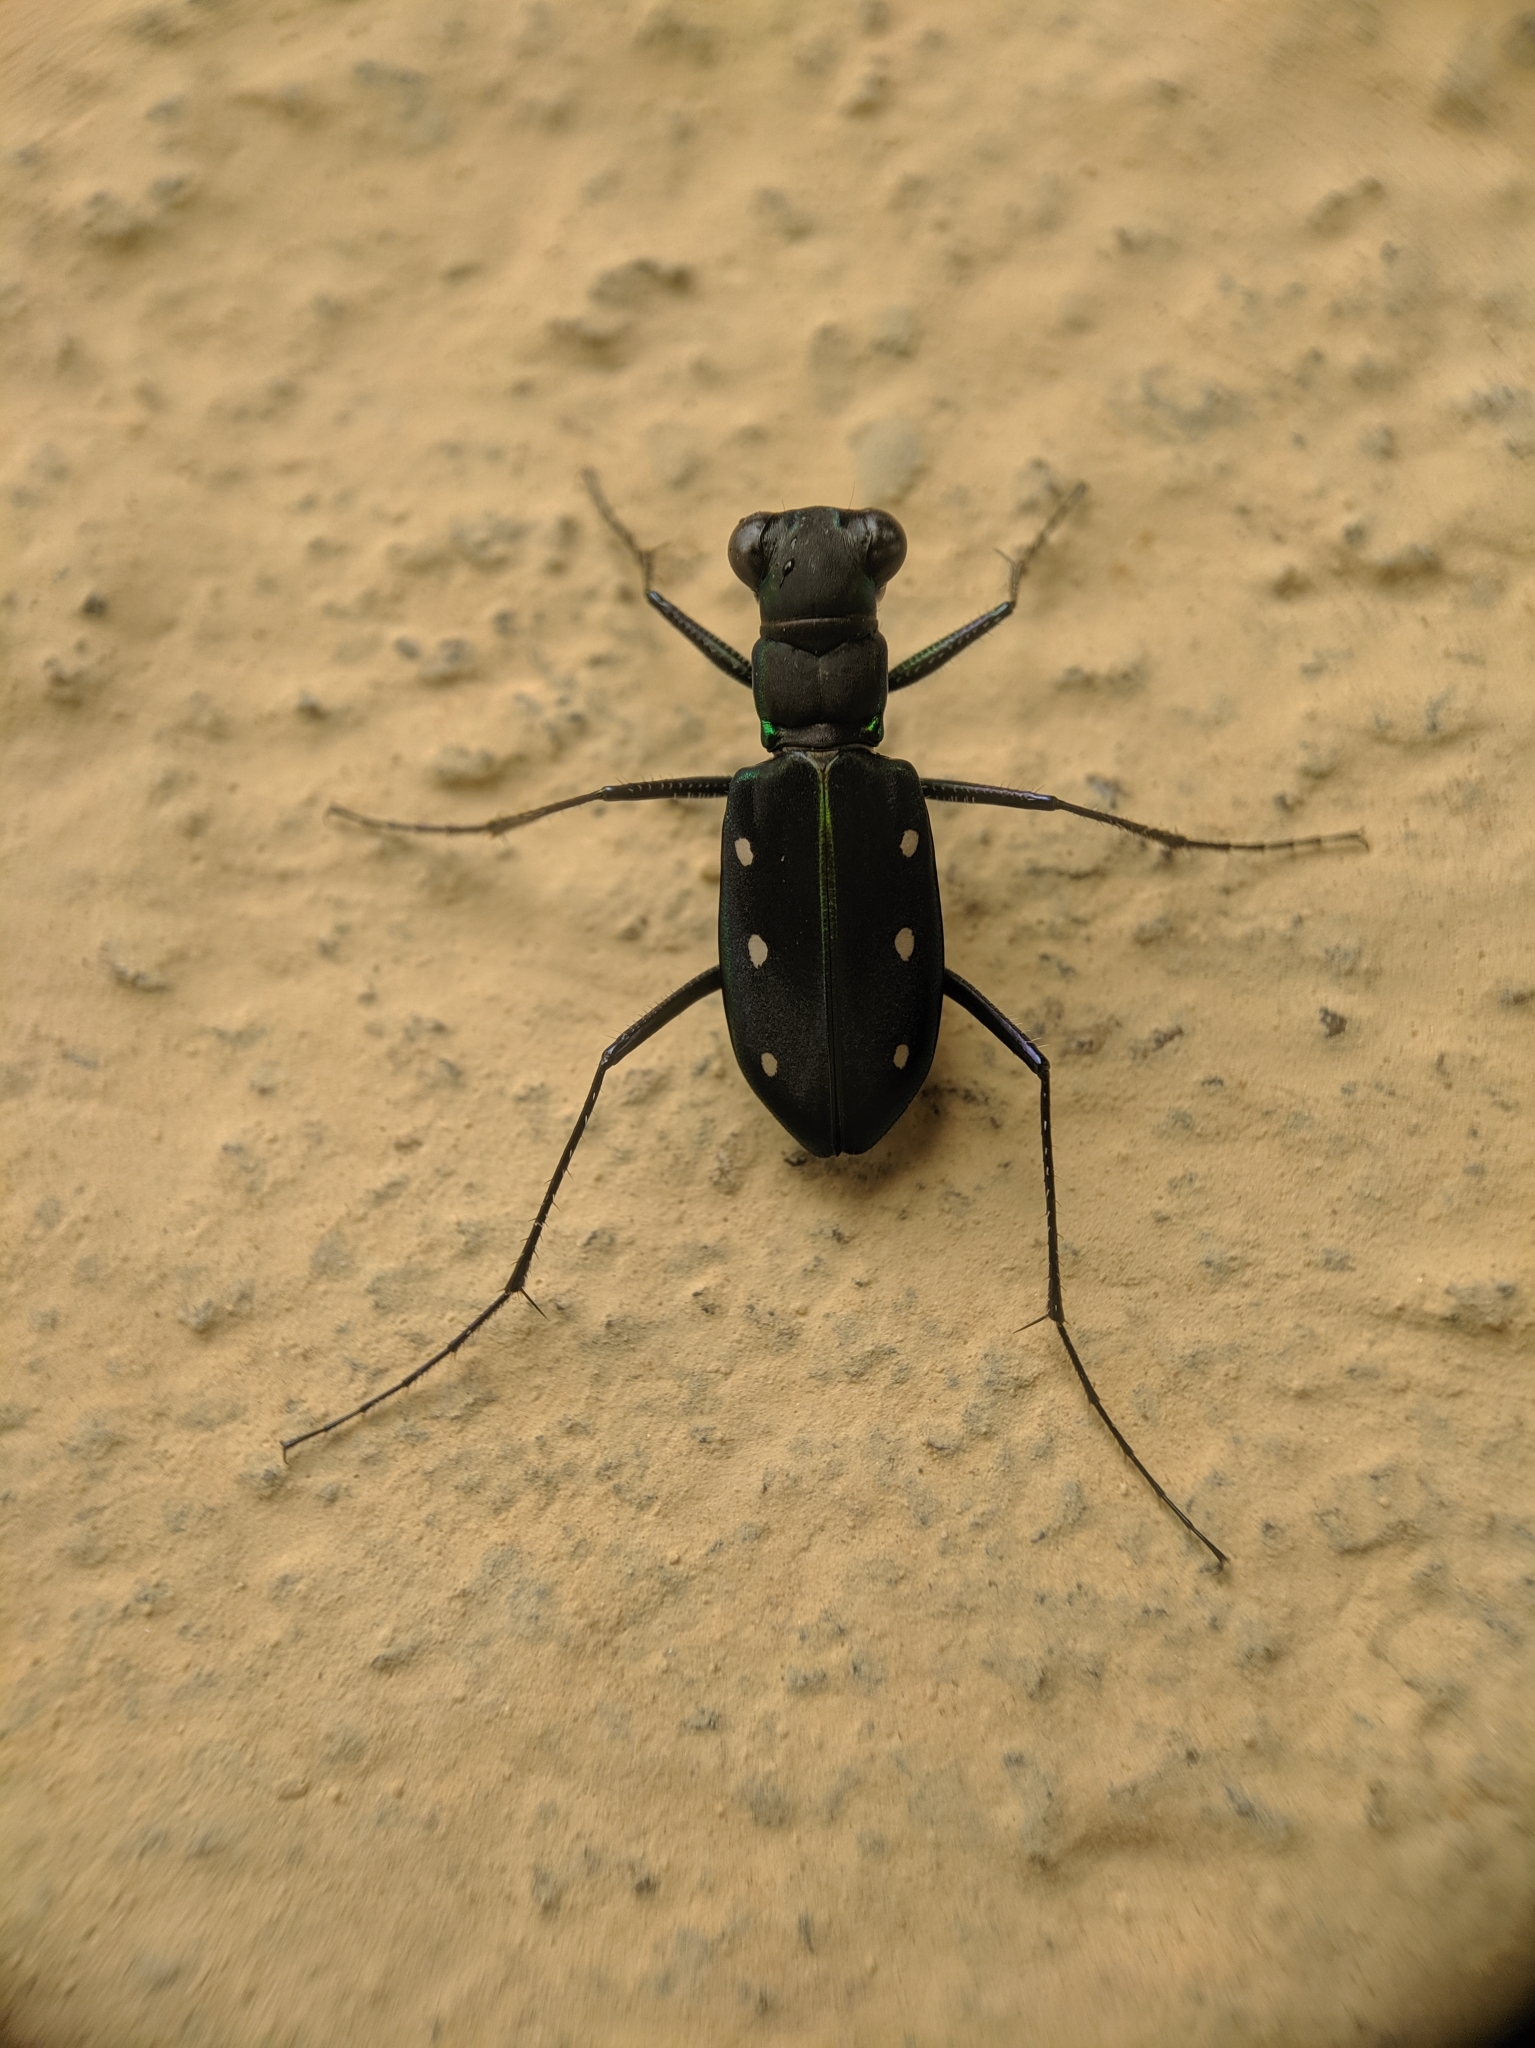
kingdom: Animalia
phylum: Arthropoda
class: Insecta
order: Coleoptera
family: Carabidae
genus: Cicindela
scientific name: Cicindela flavomaculata
